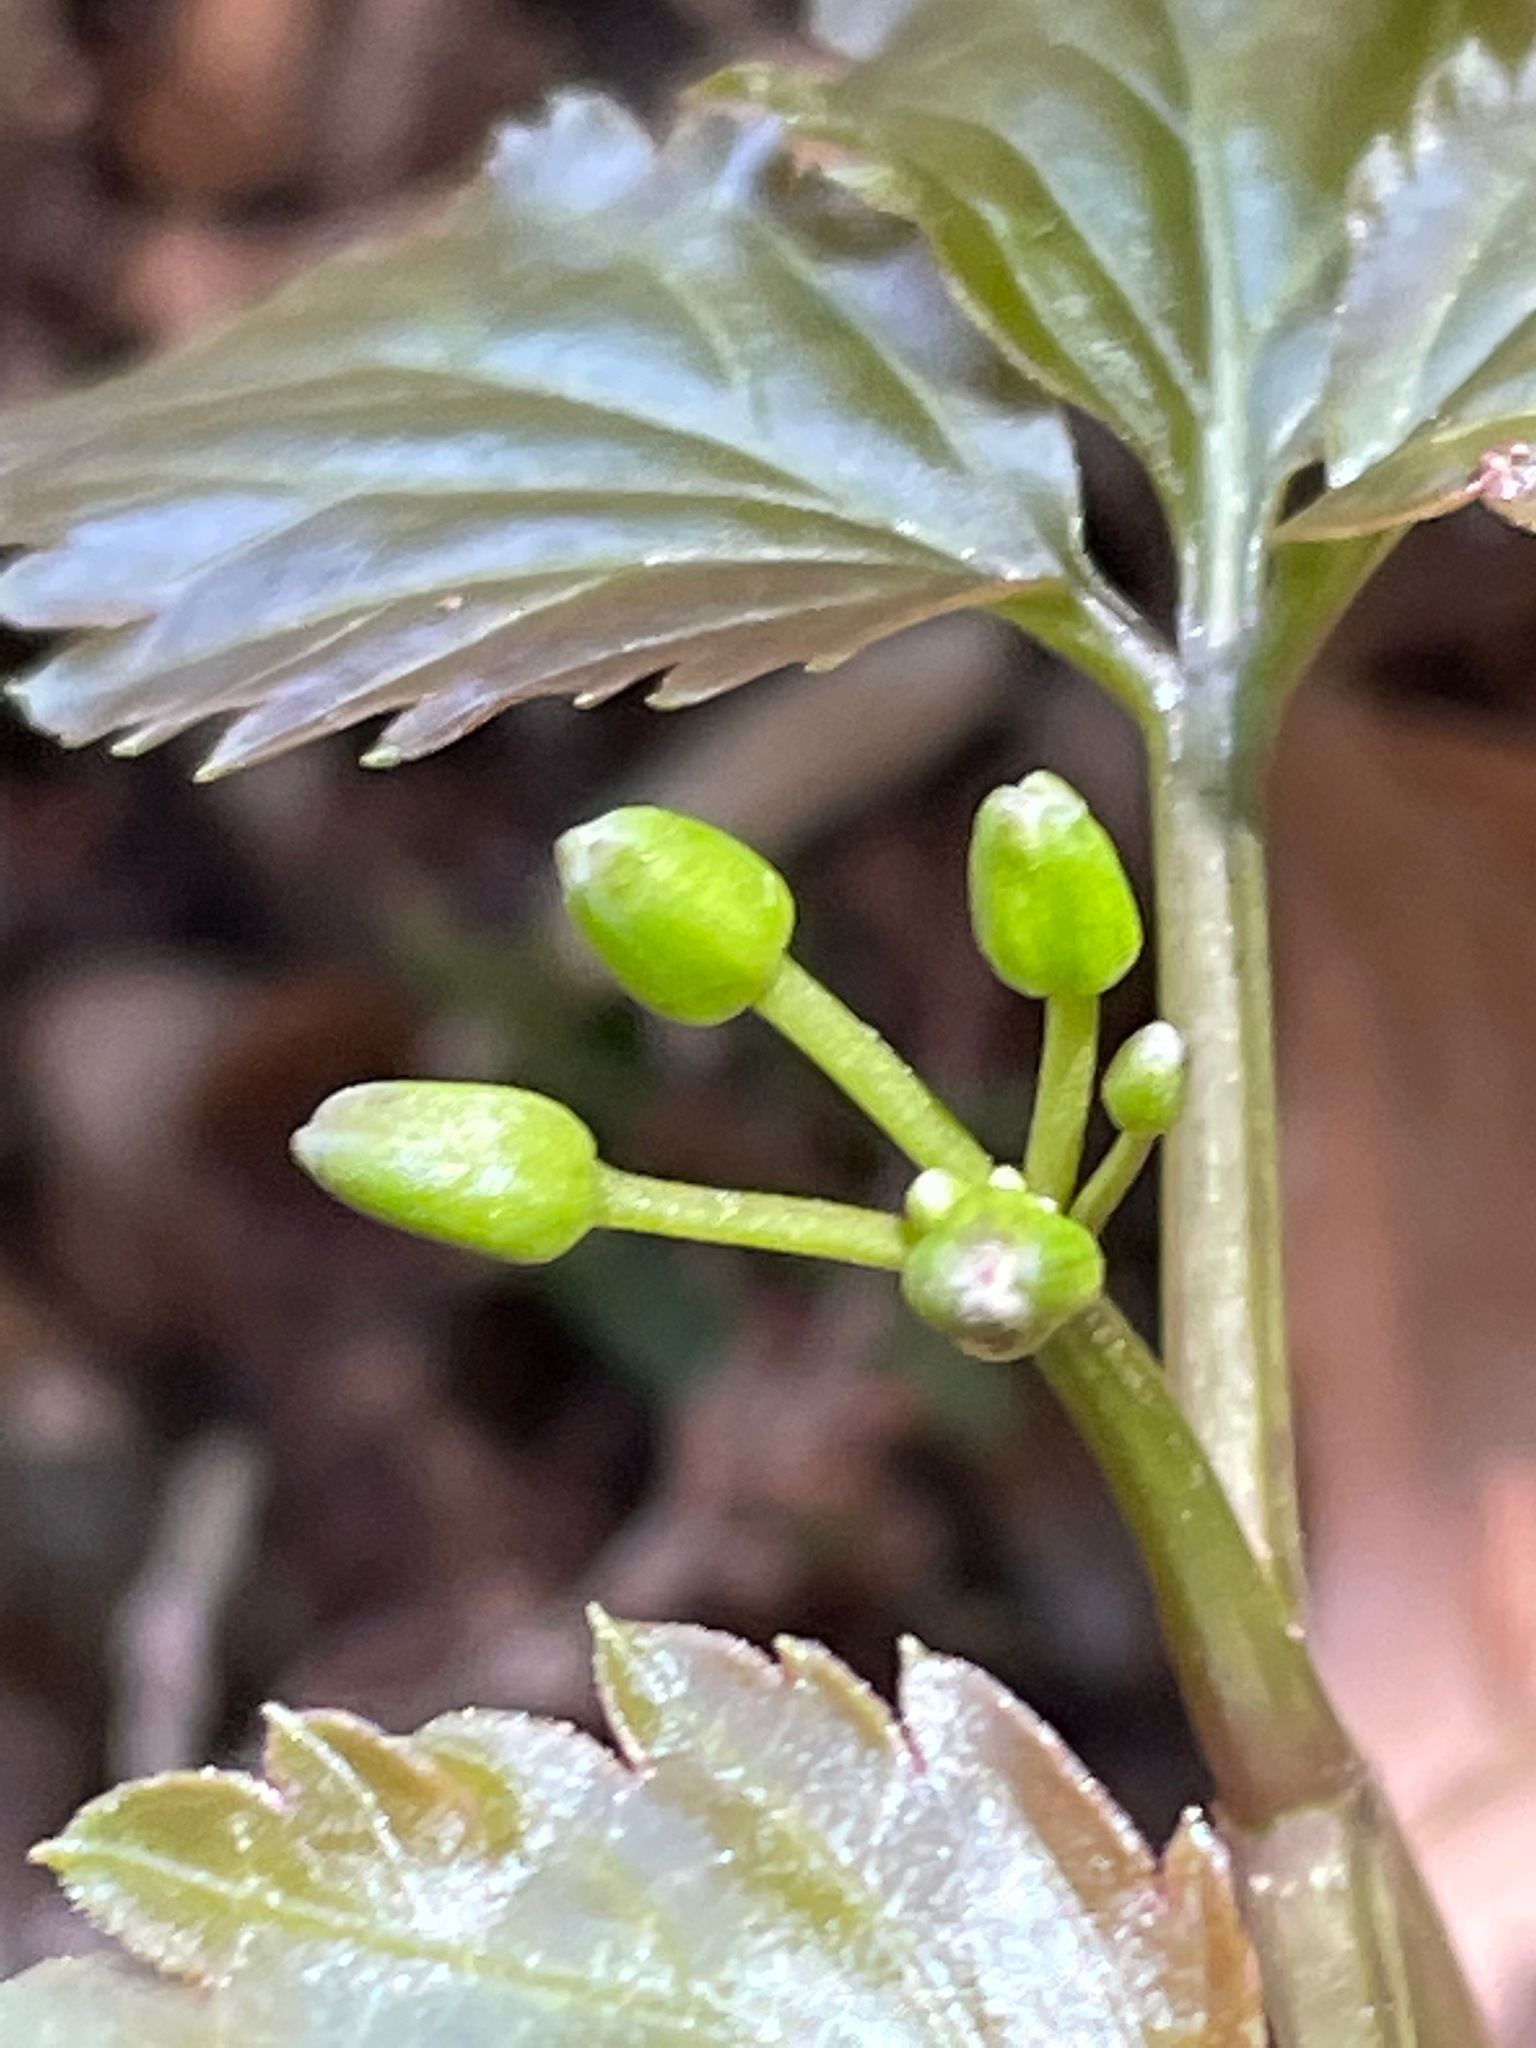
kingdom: Plantae
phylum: Tracheophyta
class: Magnoliopsida
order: Brassicales
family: Brassicaceae
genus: Cardamine
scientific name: Cardamine diphylla
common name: Broad-leaved toothwort
